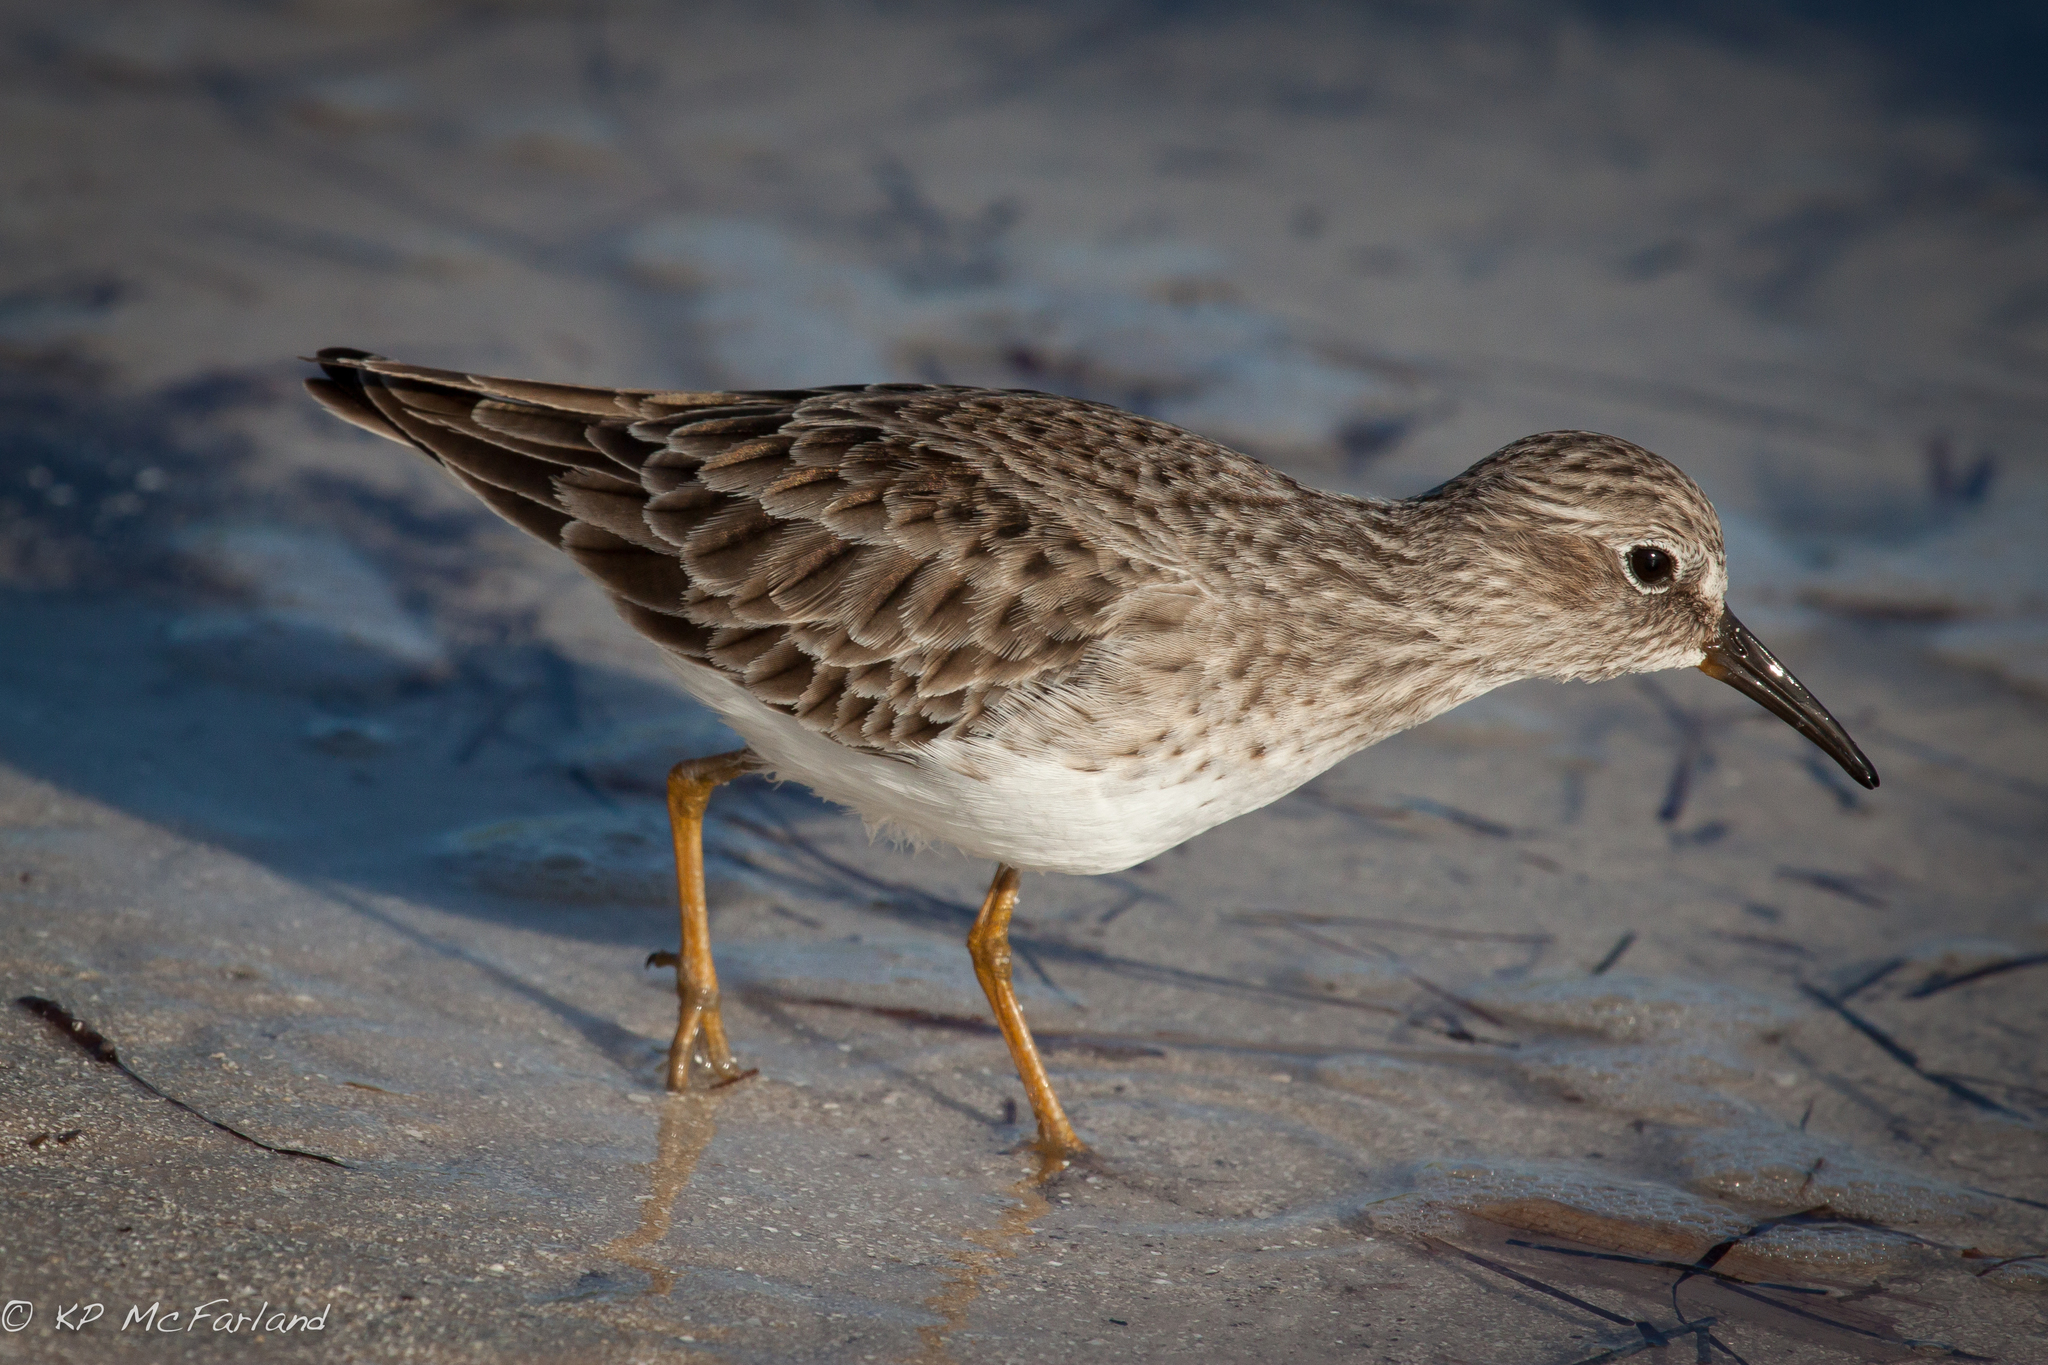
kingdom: Animalia
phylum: Chordata
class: Aves
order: Charadriiformes
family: Scolopacidae
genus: Calidris
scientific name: Calidris minutilla
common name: Least sandpiper
